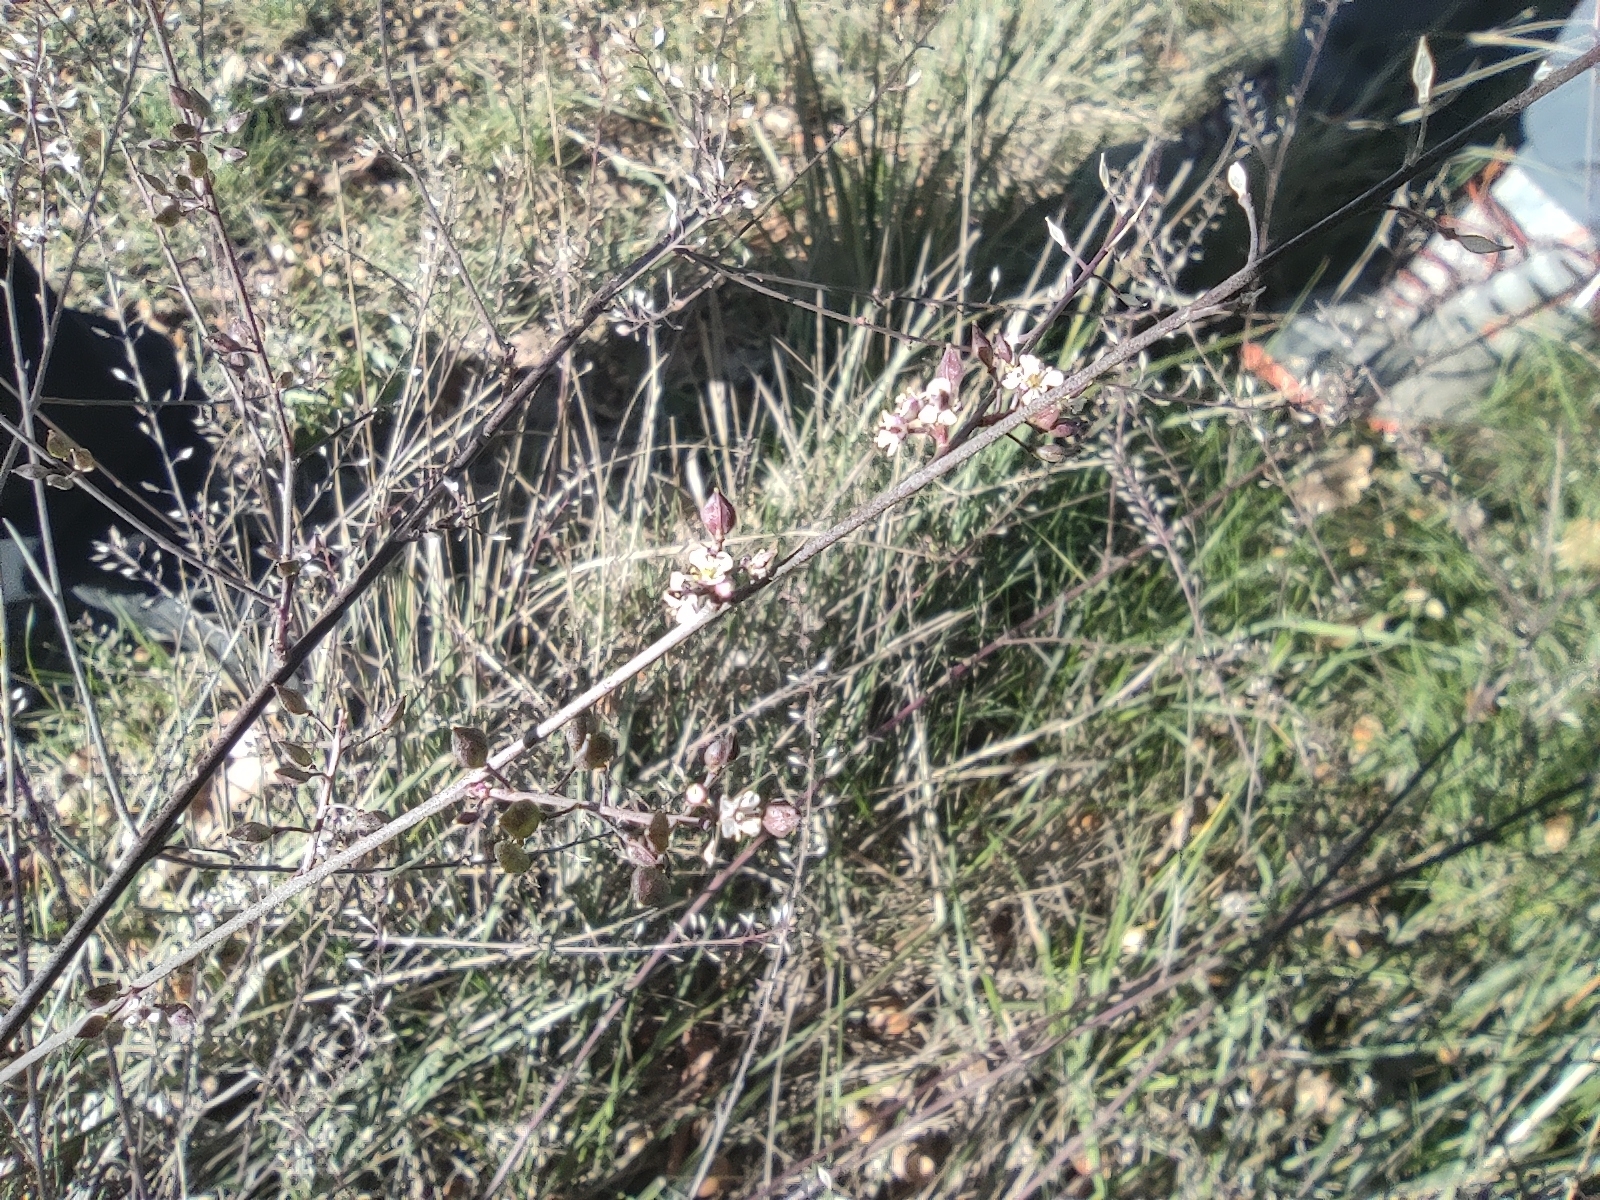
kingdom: Plantae
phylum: Tracheophyta
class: Magnoliopsida
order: Brassicales
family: Brassicaceae
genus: Lepidium
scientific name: Lepidium graminifolium
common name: Tall pepperwort
